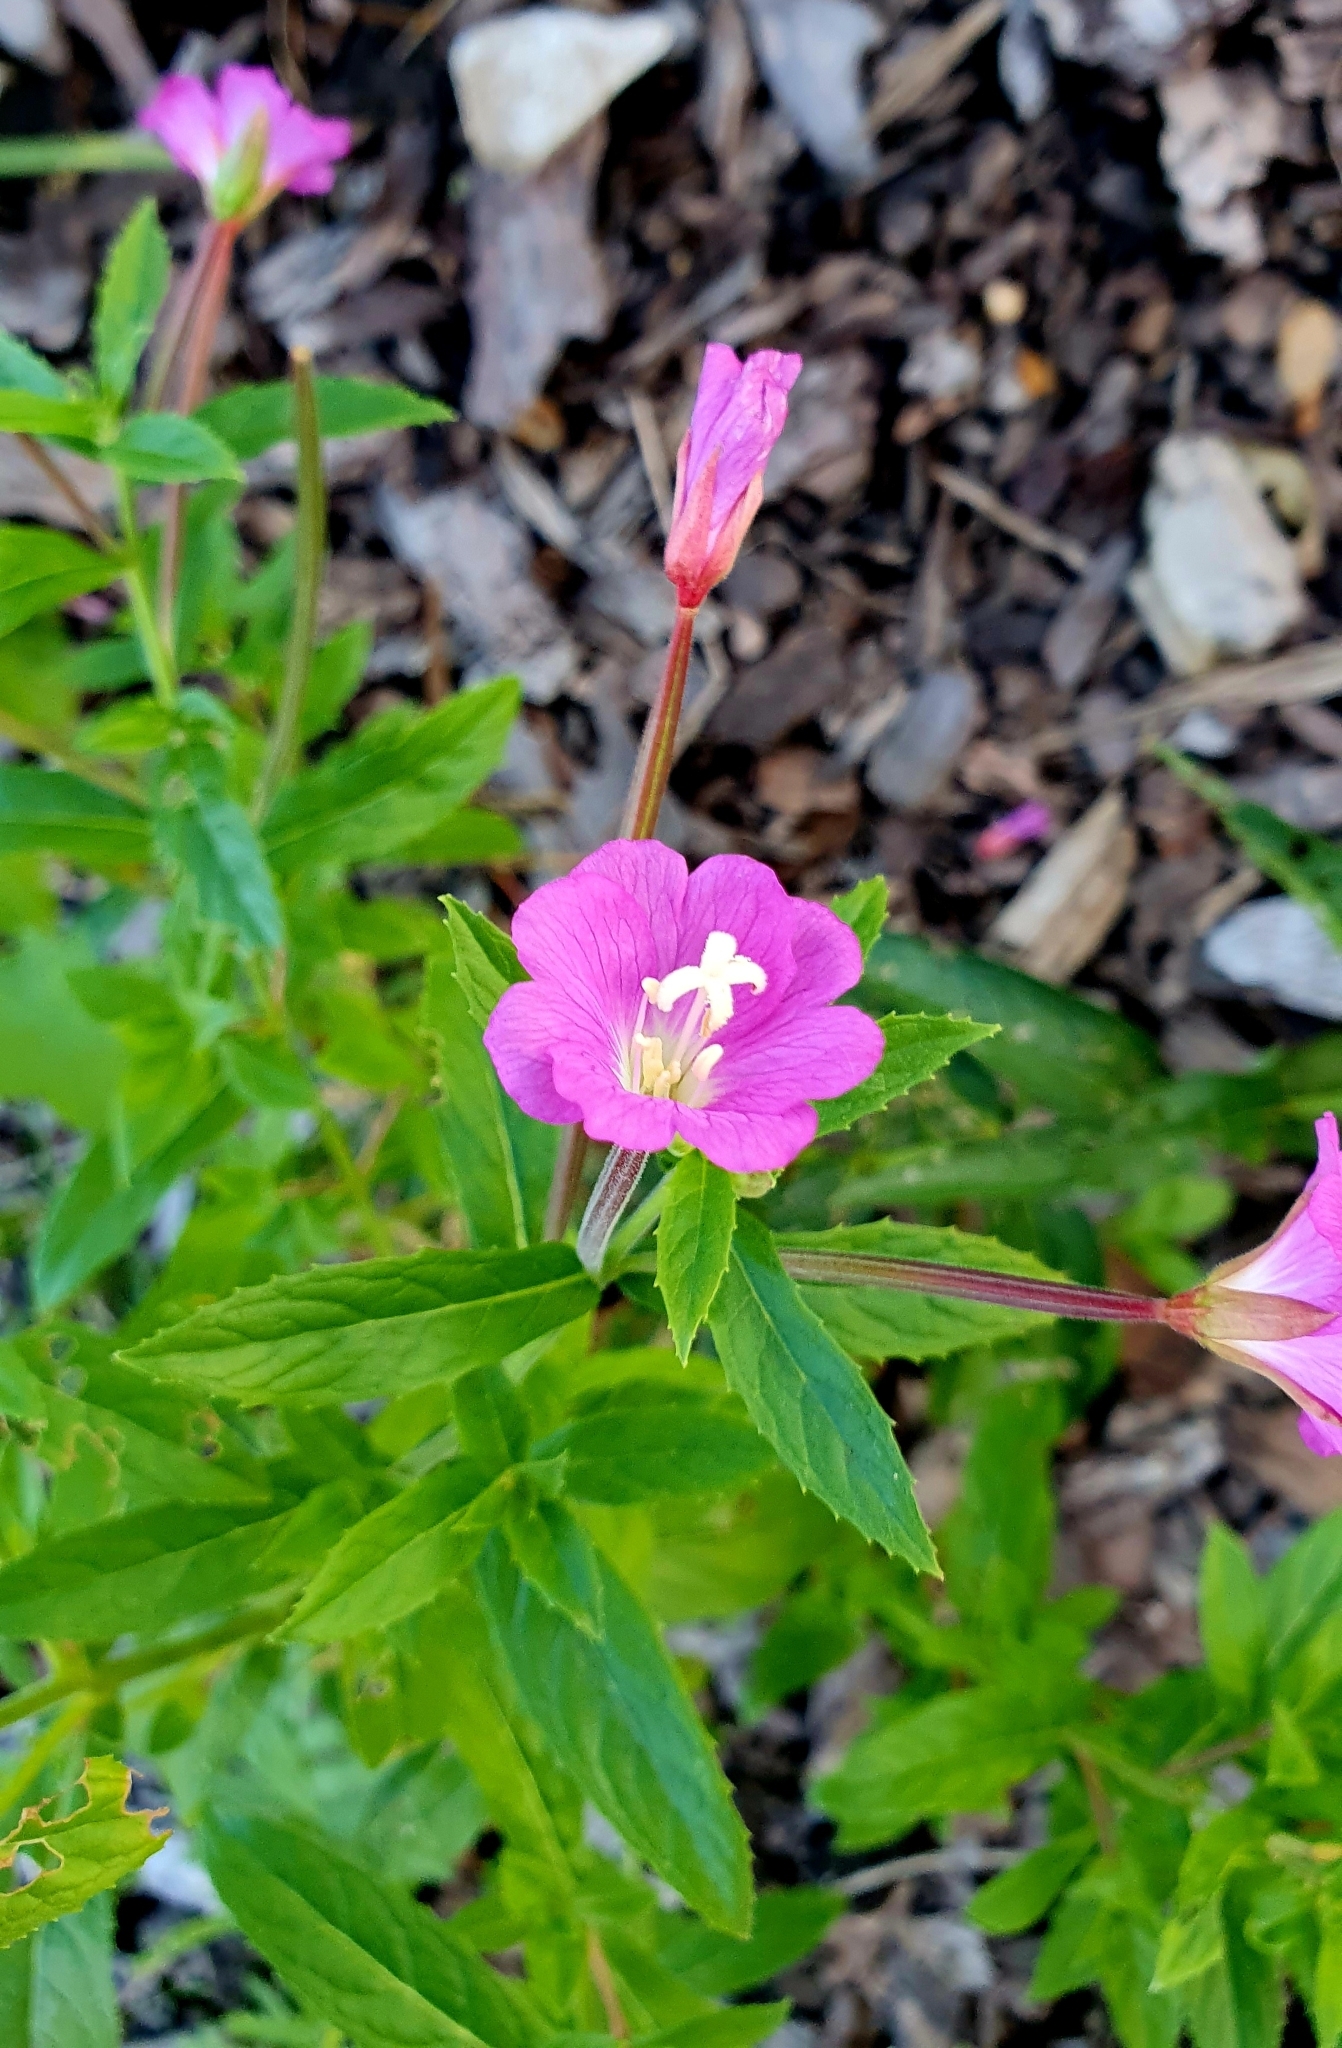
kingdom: Plantae
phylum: Tracheophyta
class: Magnoliopsida
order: Myrtales
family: Onagraceae
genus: Epilobium
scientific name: Epilobium hirsutum
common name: Great willowherb
